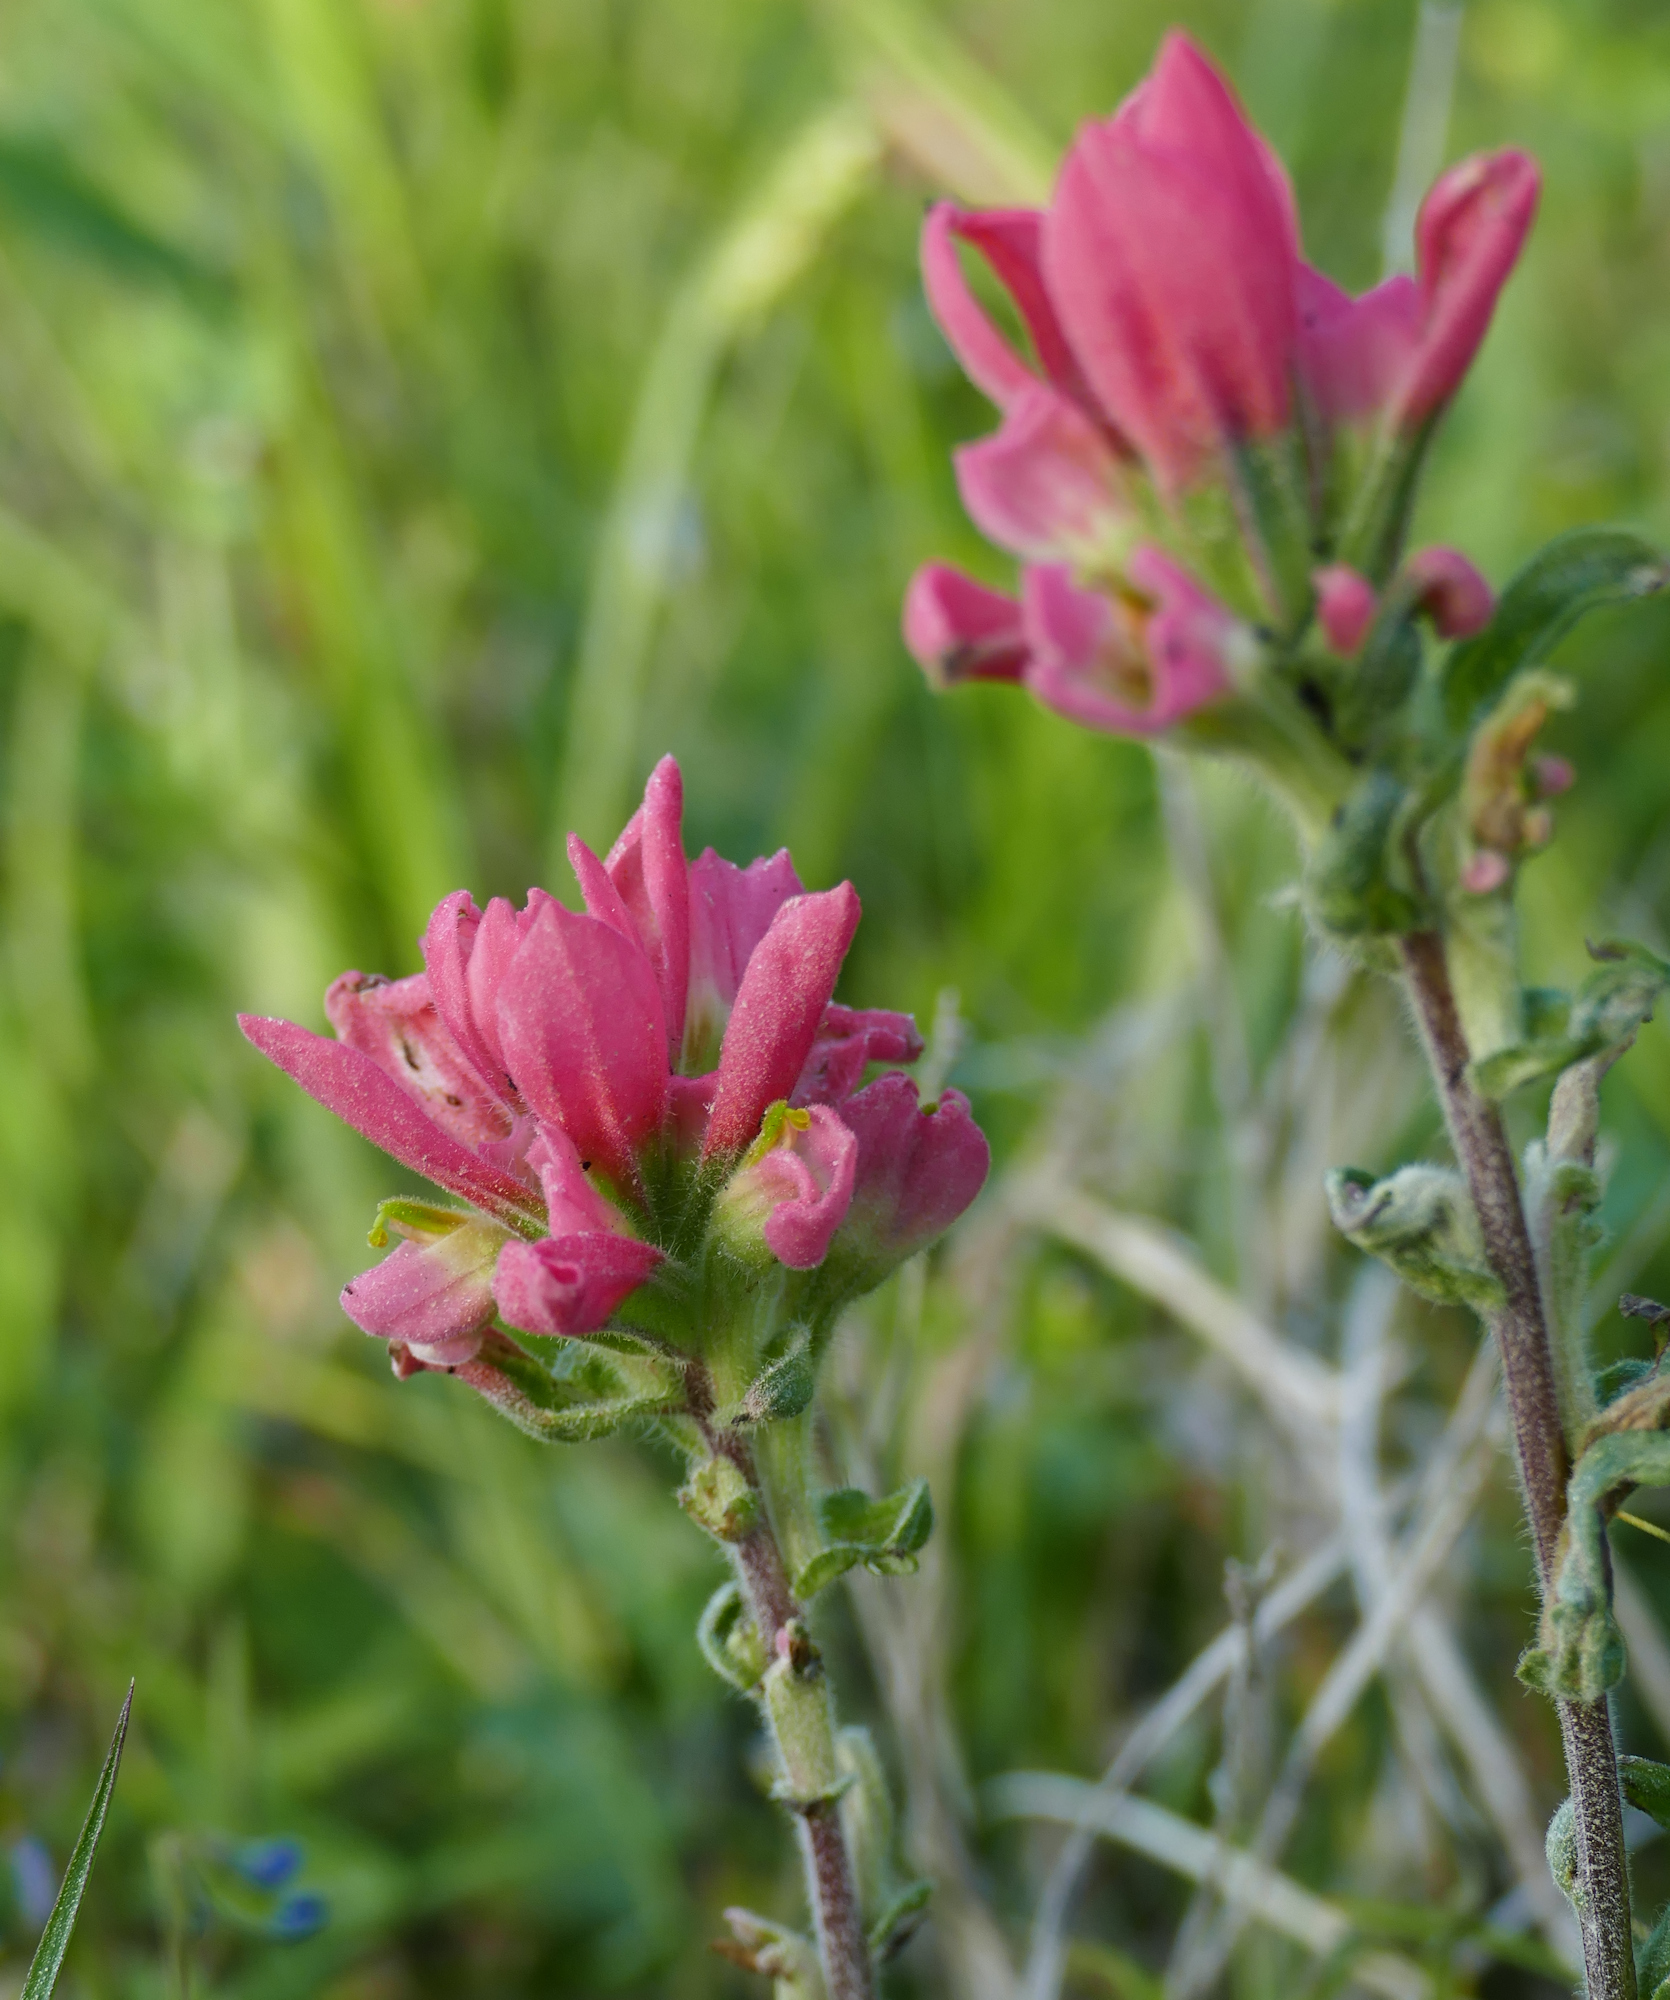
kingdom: Plantae
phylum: Tracheophyta
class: Magnoliopsida
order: Lamiales
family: Orobanchaceae
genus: Castilleja
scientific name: Castilleja indivisa
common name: Texas paintbrush
